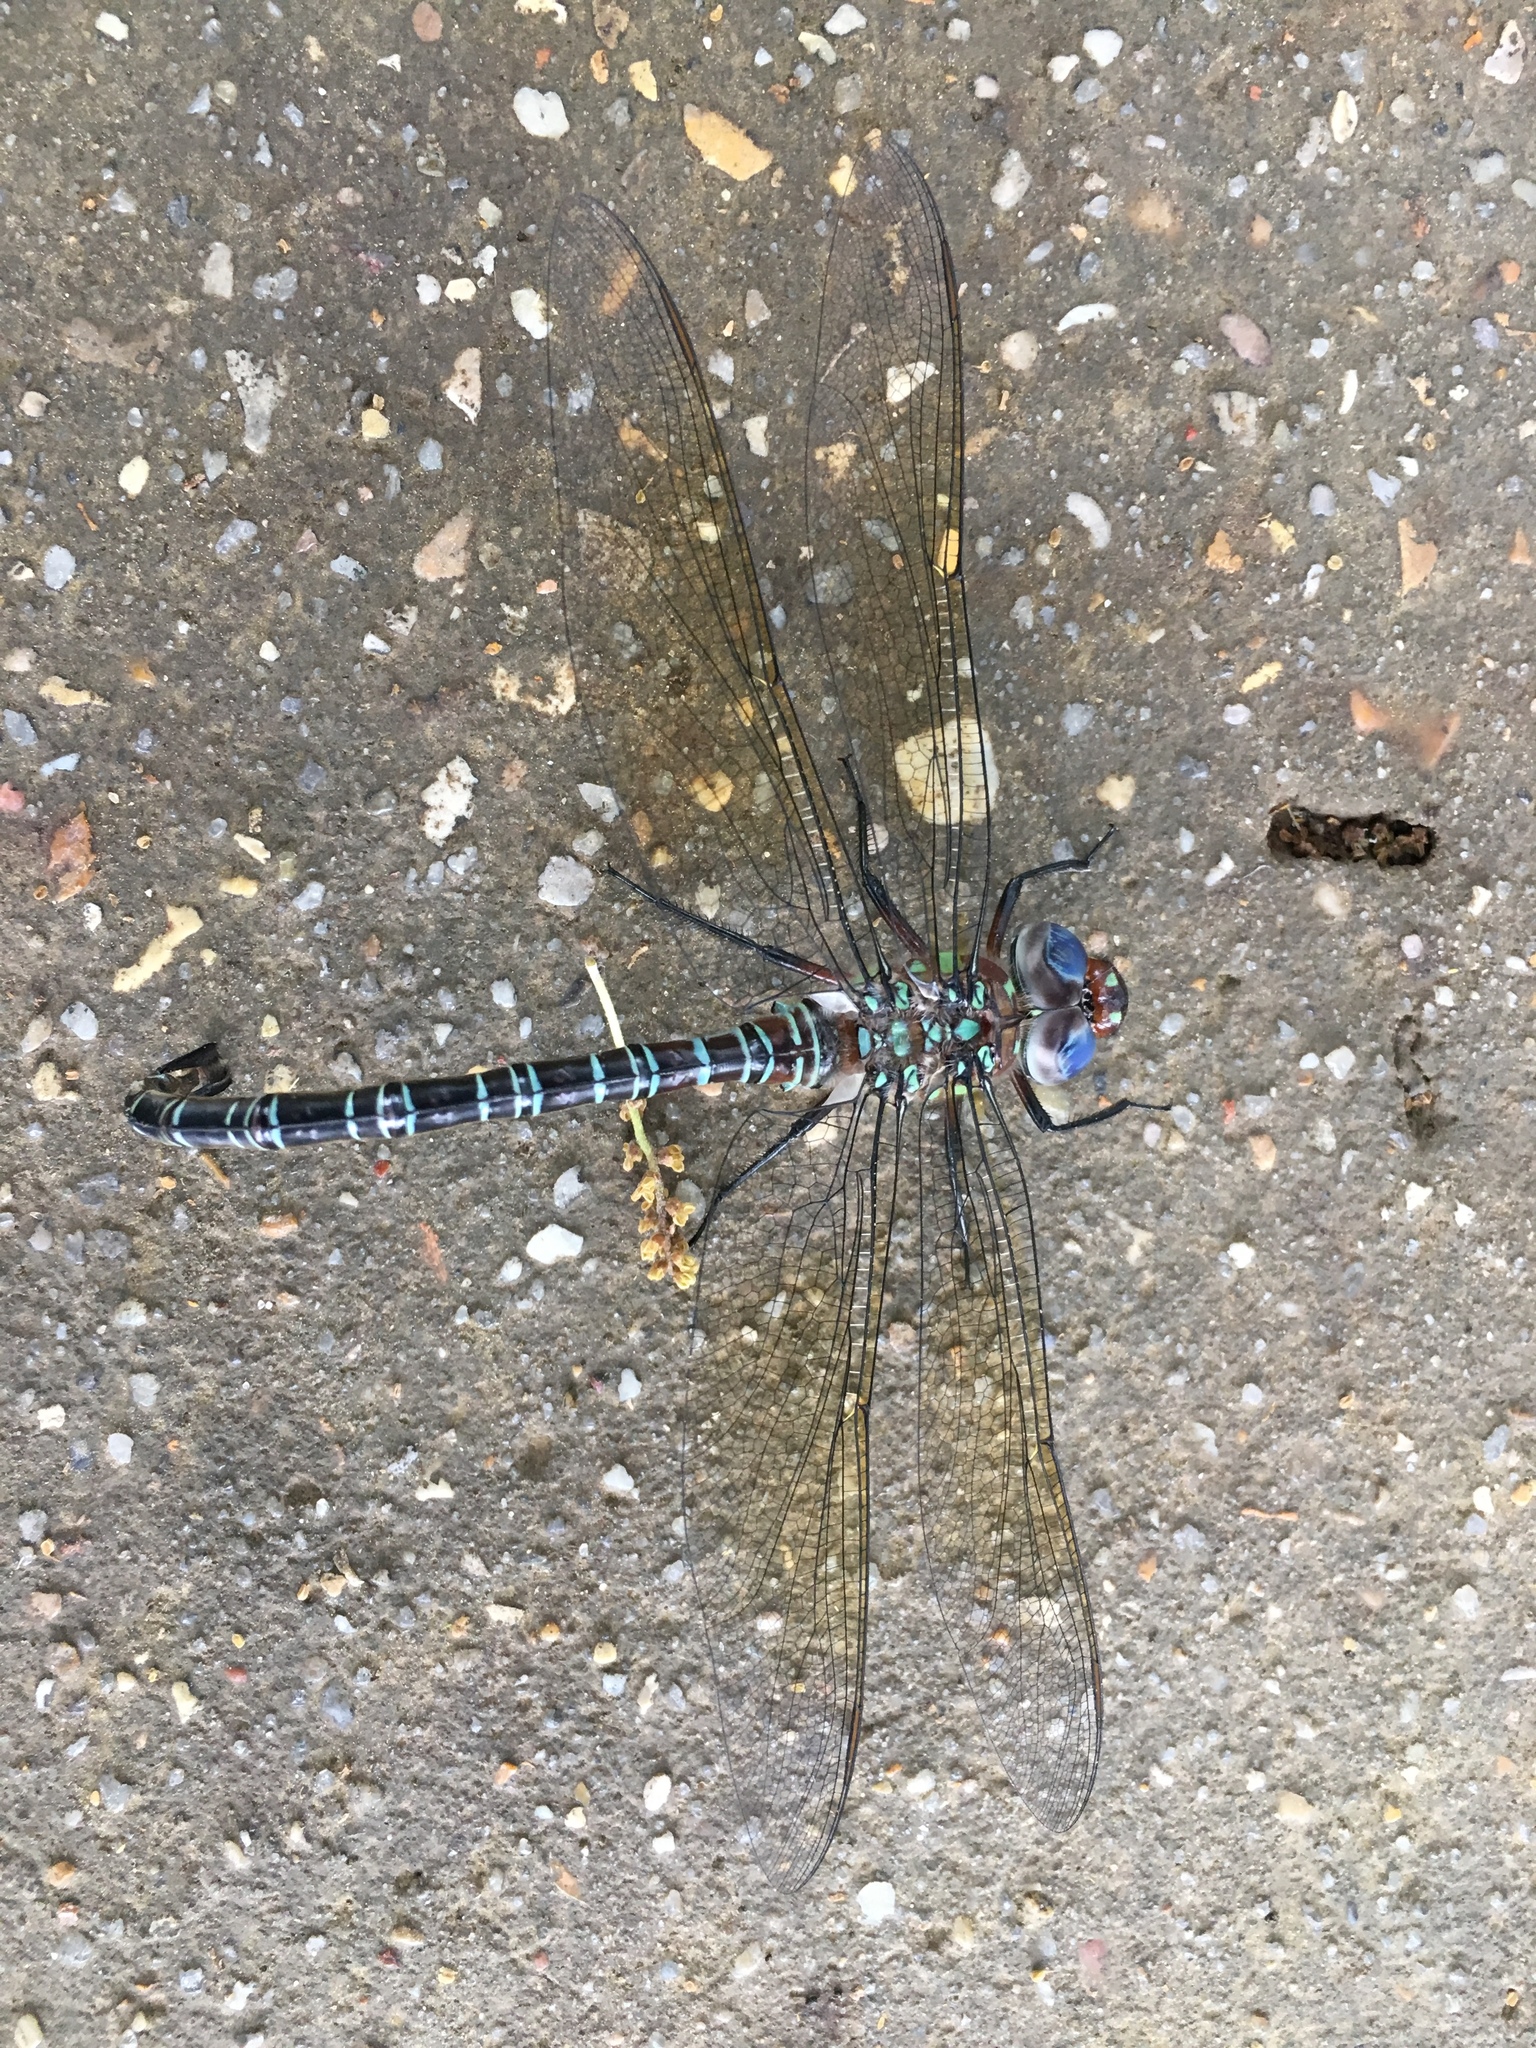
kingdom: Animalia
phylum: Arthropoda
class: Insecta
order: Odonata
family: Aeshnidae
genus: Epiaeschna
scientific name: Epiaeschna heros
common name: Swamp darner
